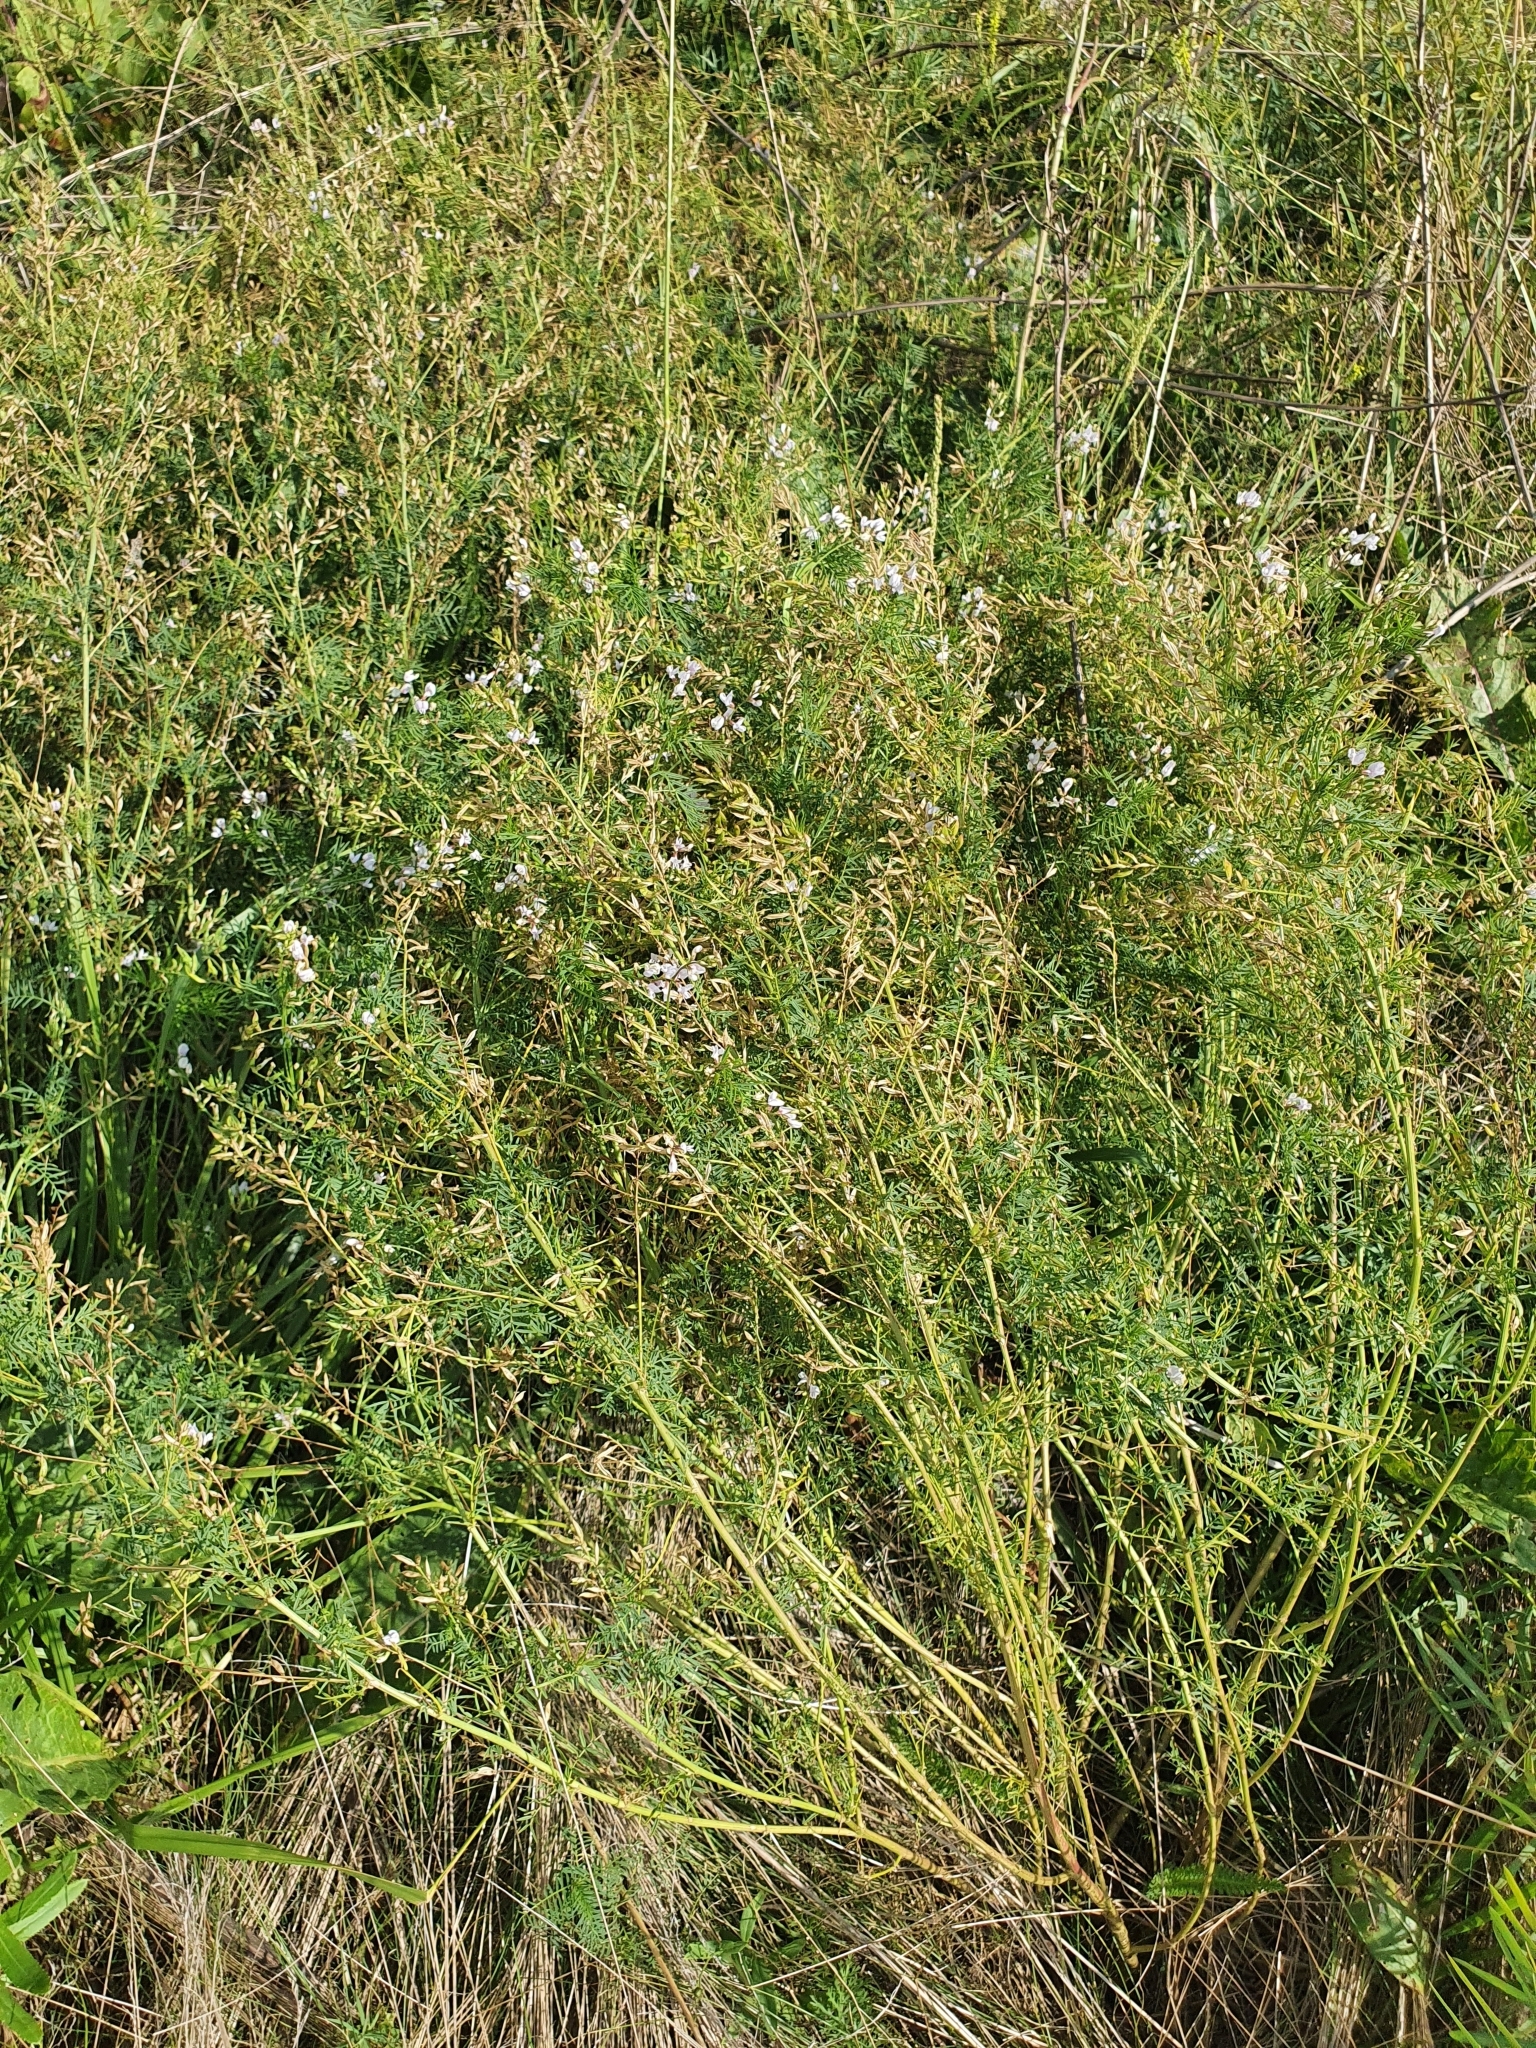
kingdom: Plantae
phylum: Tracheophyta
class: Magnoliopsida
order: Fabales
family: Fabaceae
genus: Astragalus
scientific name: Astragalus sulcatus
